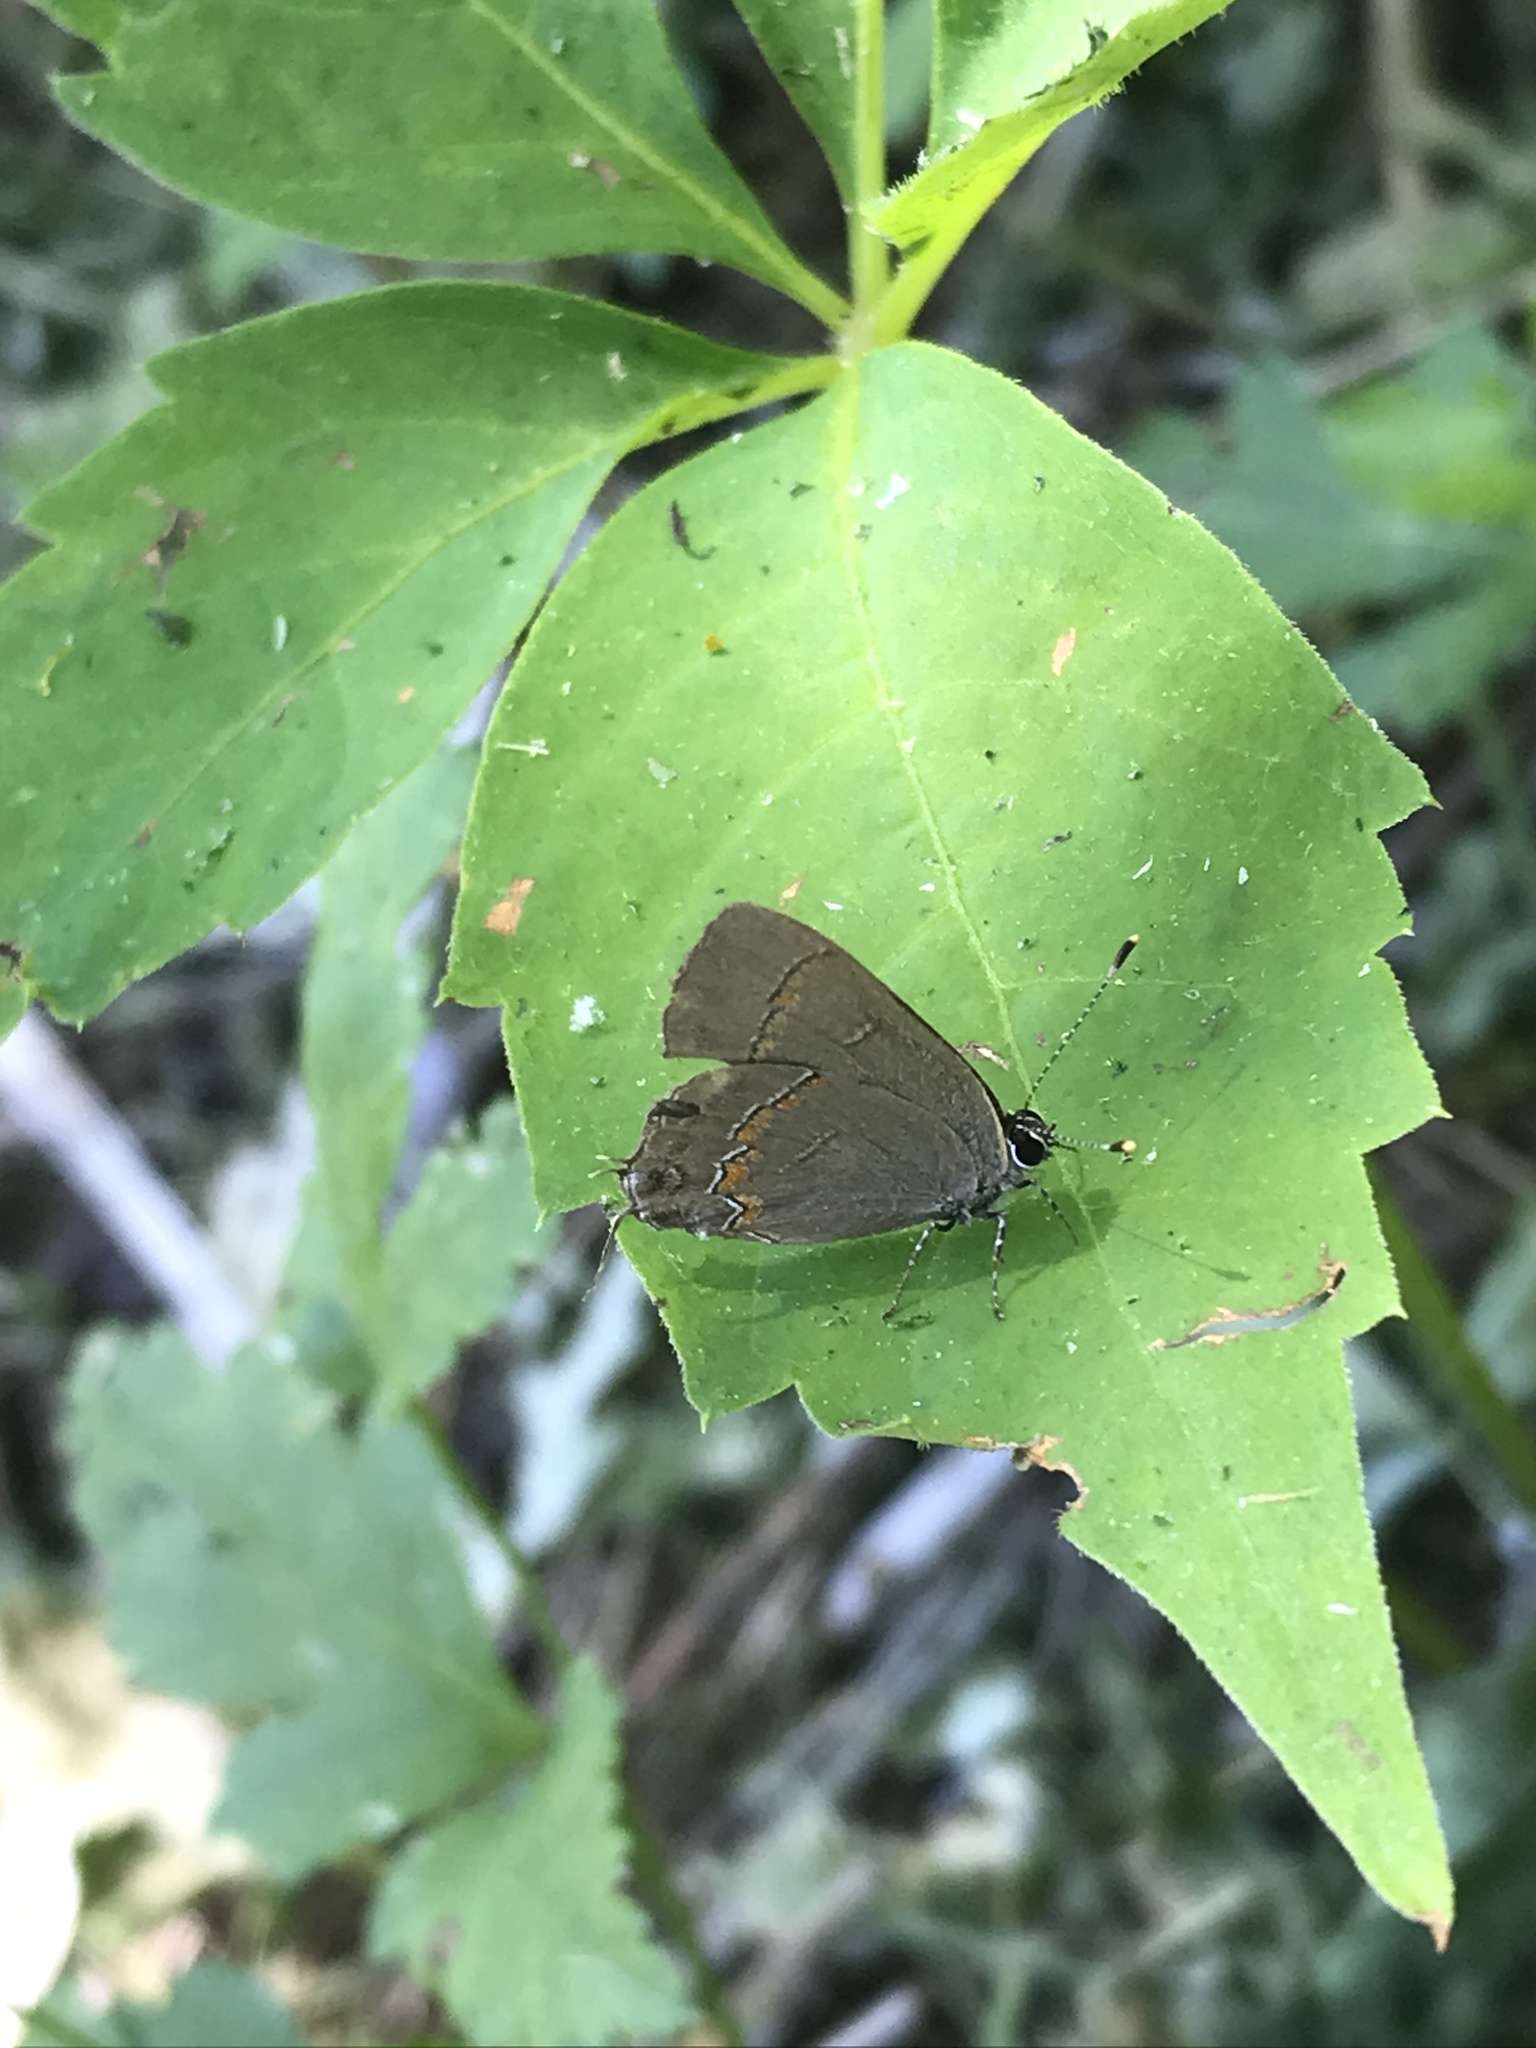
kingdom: Animalia
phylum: Arthropoda
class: Insecta
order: Lepidoptera
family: Lycaenidae
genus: Calycopis
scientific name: Calycopis cecrops
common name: Red-banded hairstreak
